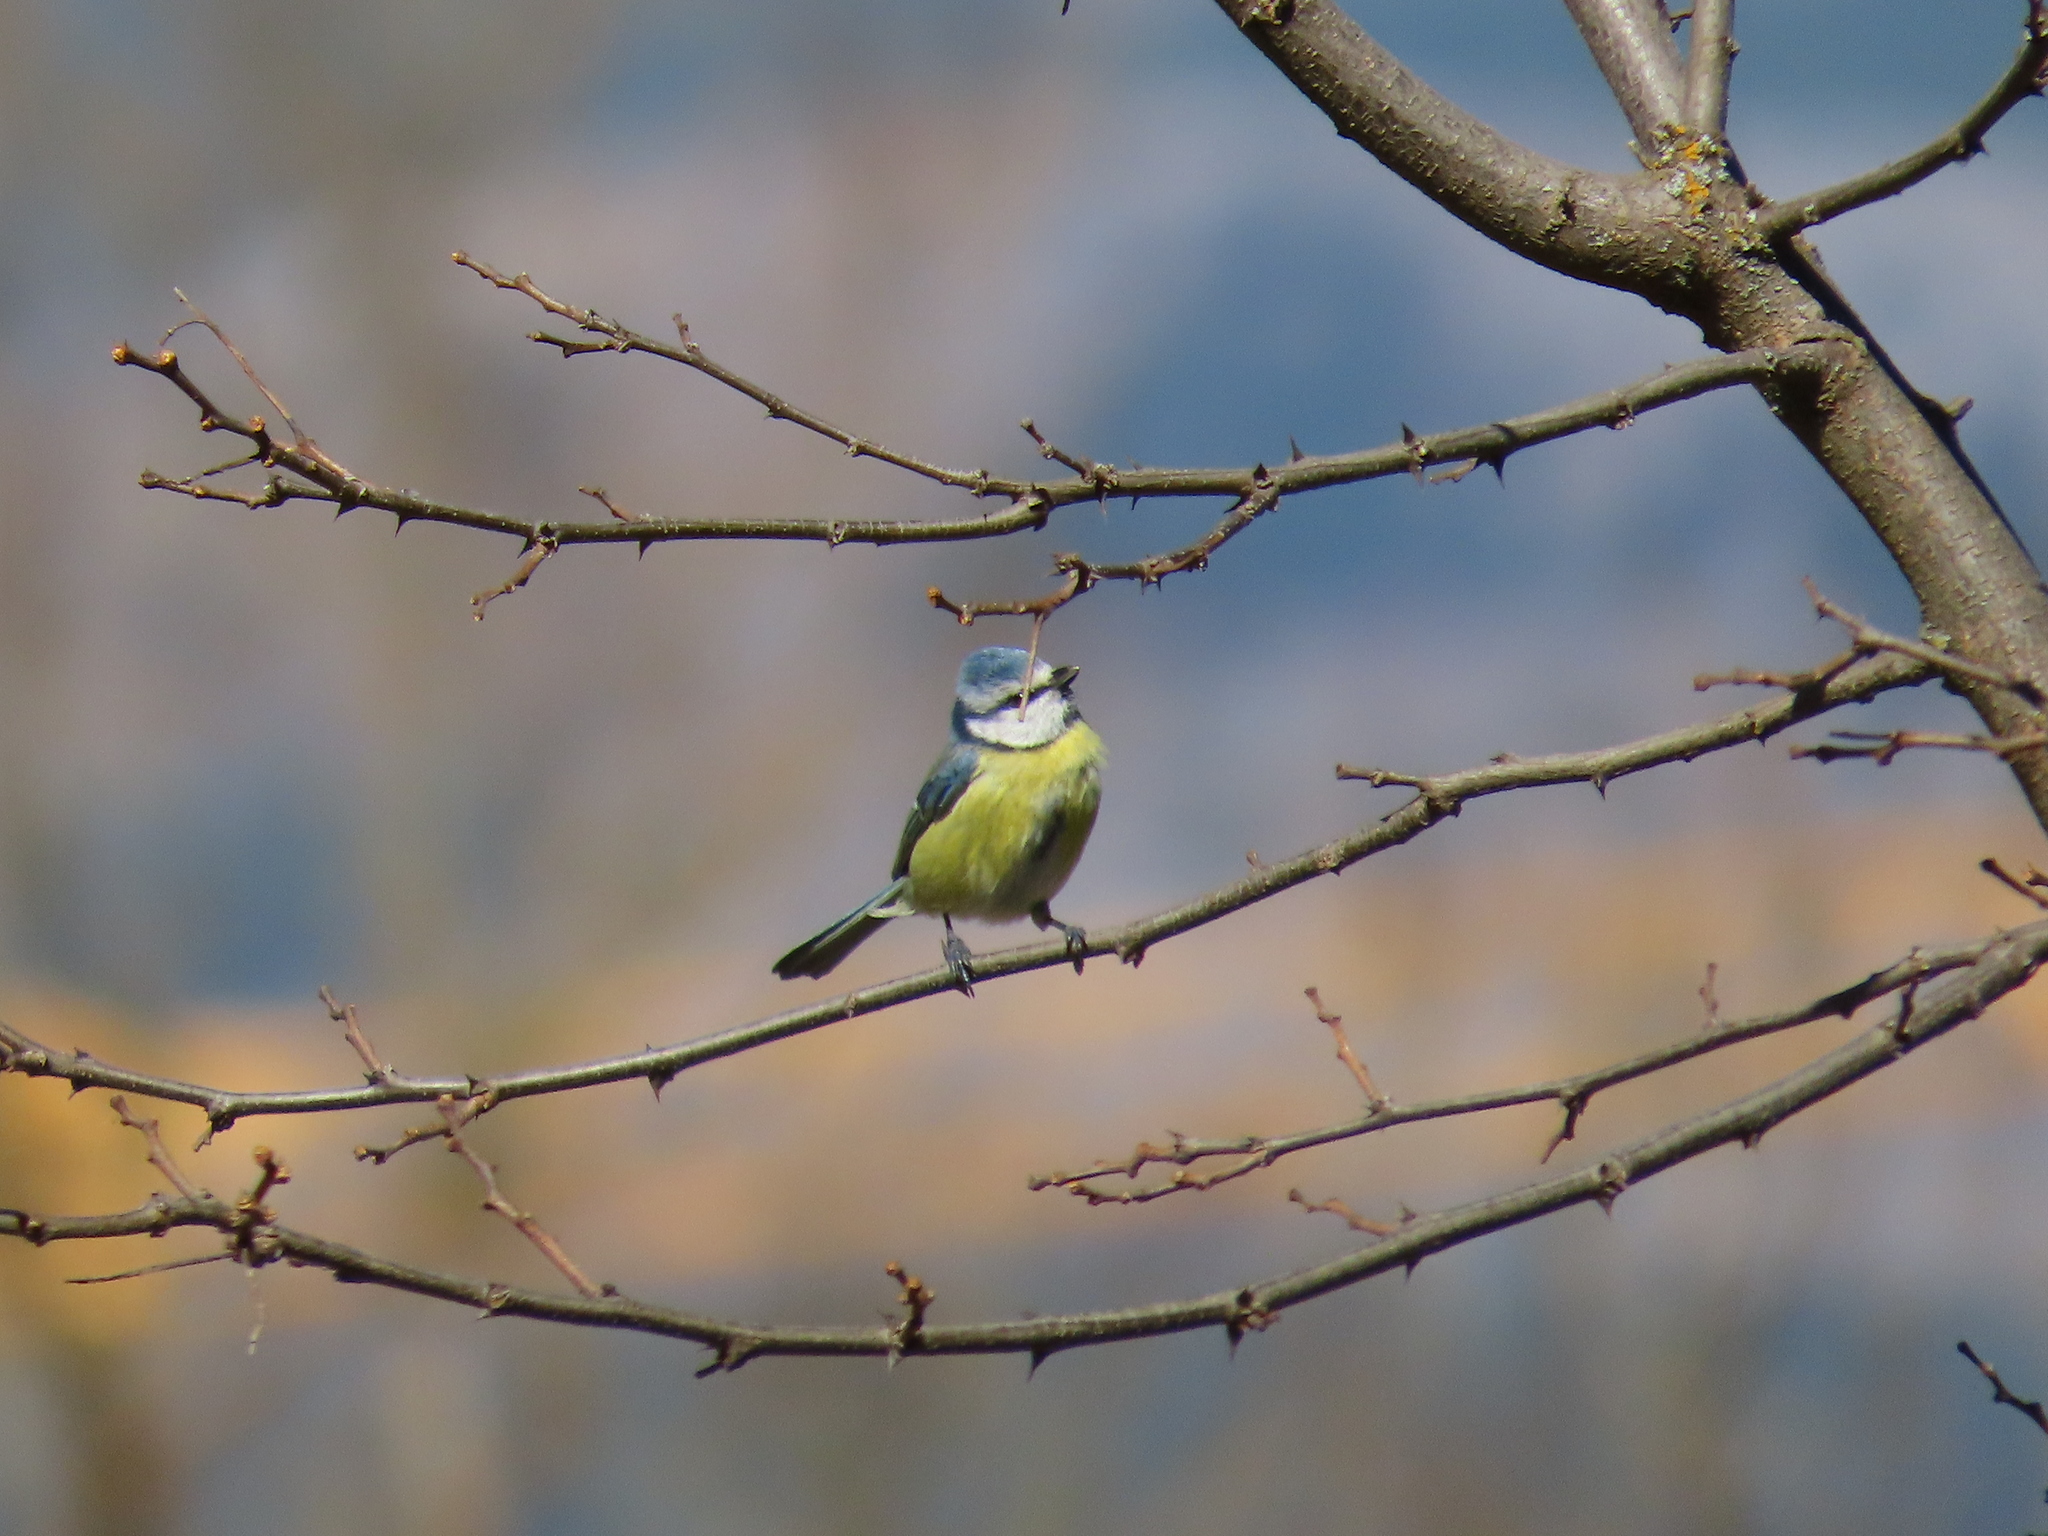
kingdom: Animalia
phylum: Chordata
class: Aves
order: Passeriformes
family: Paridae
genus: Cyanistes
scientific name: Cyanistes caeruleus
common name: Eurasian blue tit
